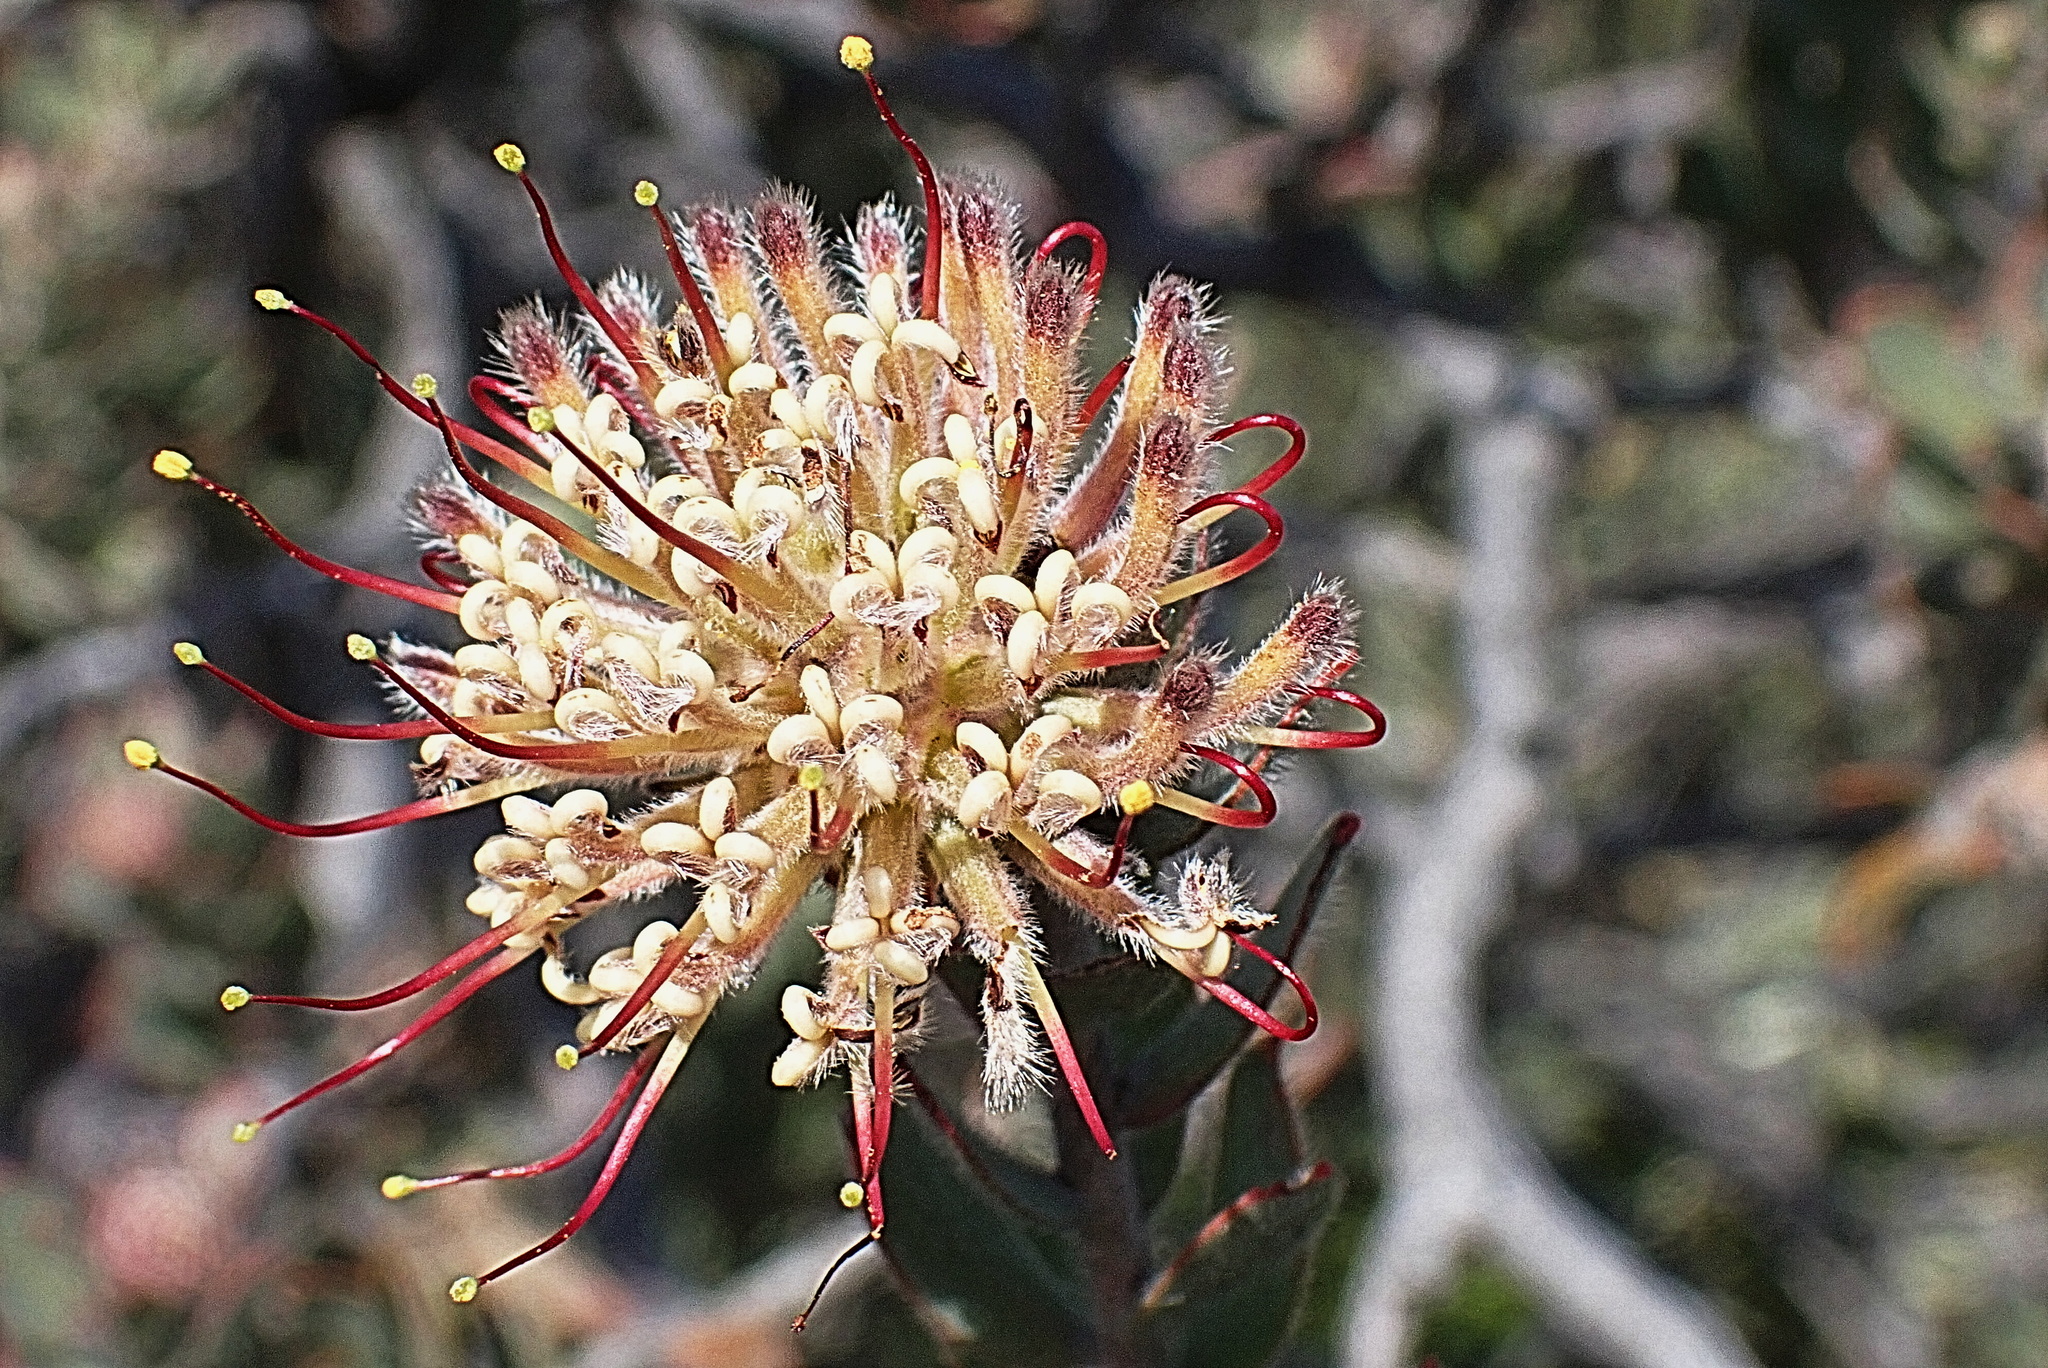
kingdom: Plantae
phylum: Tracheophyta
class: Magnoliopsida
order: Proteales
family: Proteaceae
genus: Leucospermum
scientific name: Leucospermum calligerum
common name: Arid pincushion
